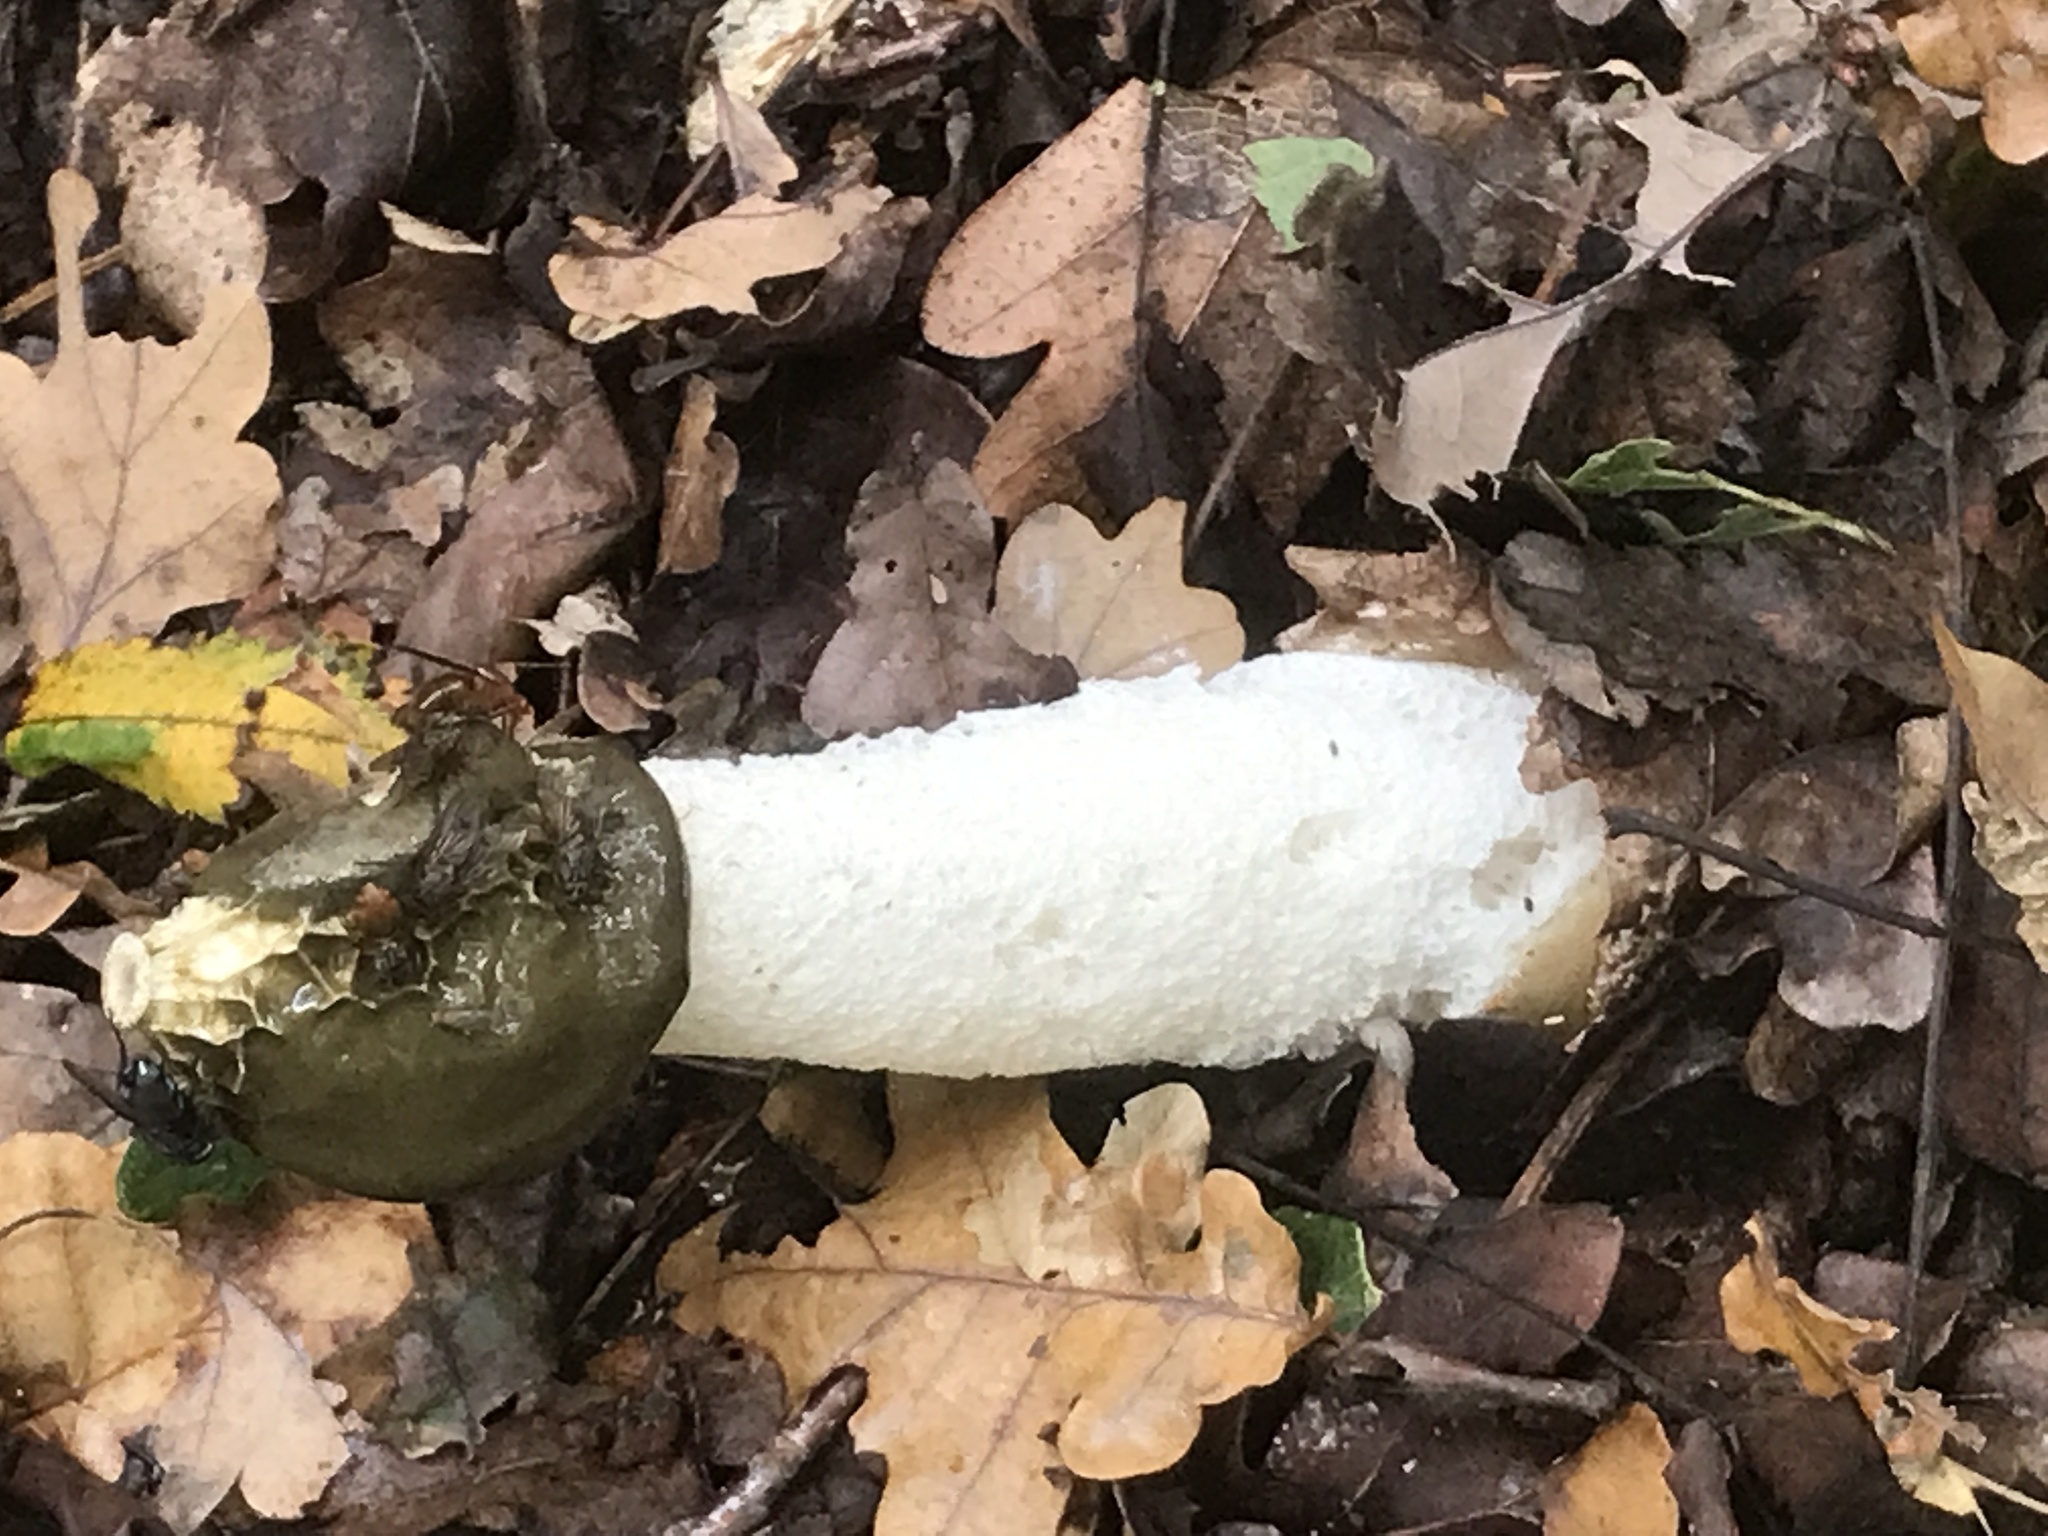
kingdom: Fungi
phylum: Basidiomycota
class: Agaricomycetes
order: Phallales
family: Phallaceae
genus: Phallus
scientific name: Phallus impudicus
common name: Common stinkhorn
